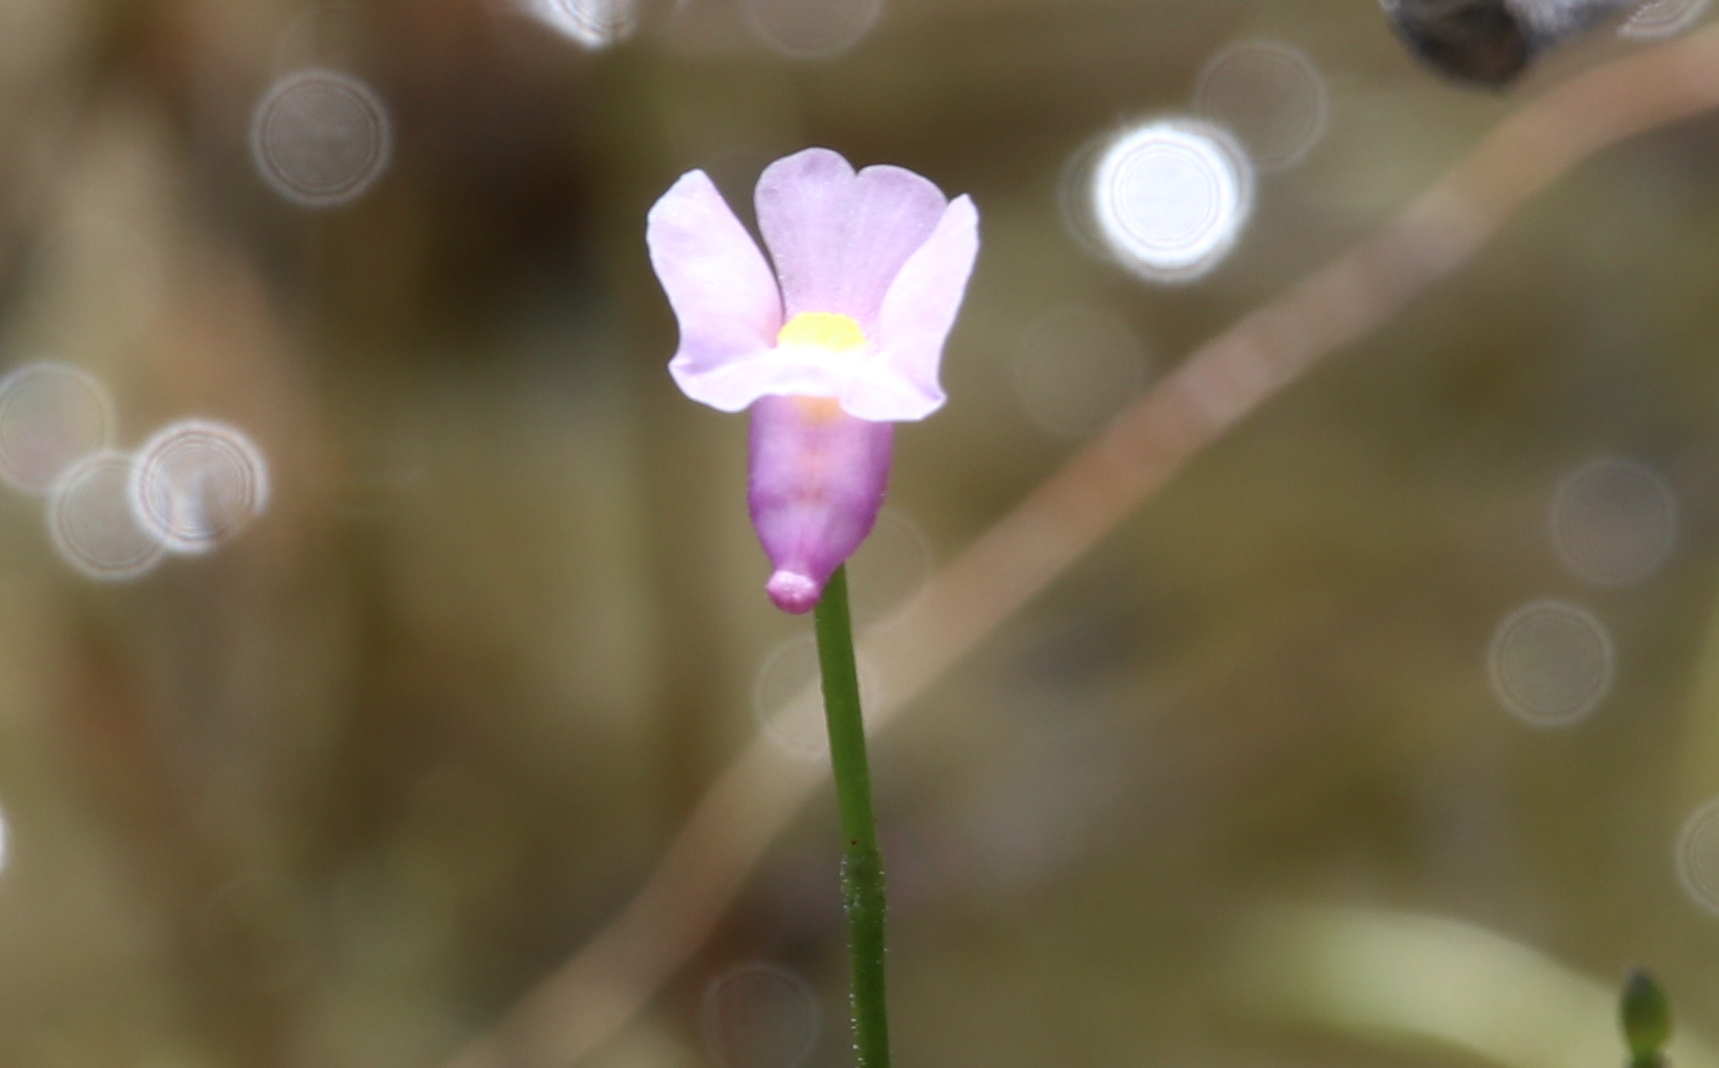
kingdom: Plantae
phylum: Tracheophyta
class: Magnoliopsida
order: Lamiales
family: Lentibulariaceae
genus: Utricularia
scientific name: Utricularia resupinata
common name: Northeastern bladderwort
